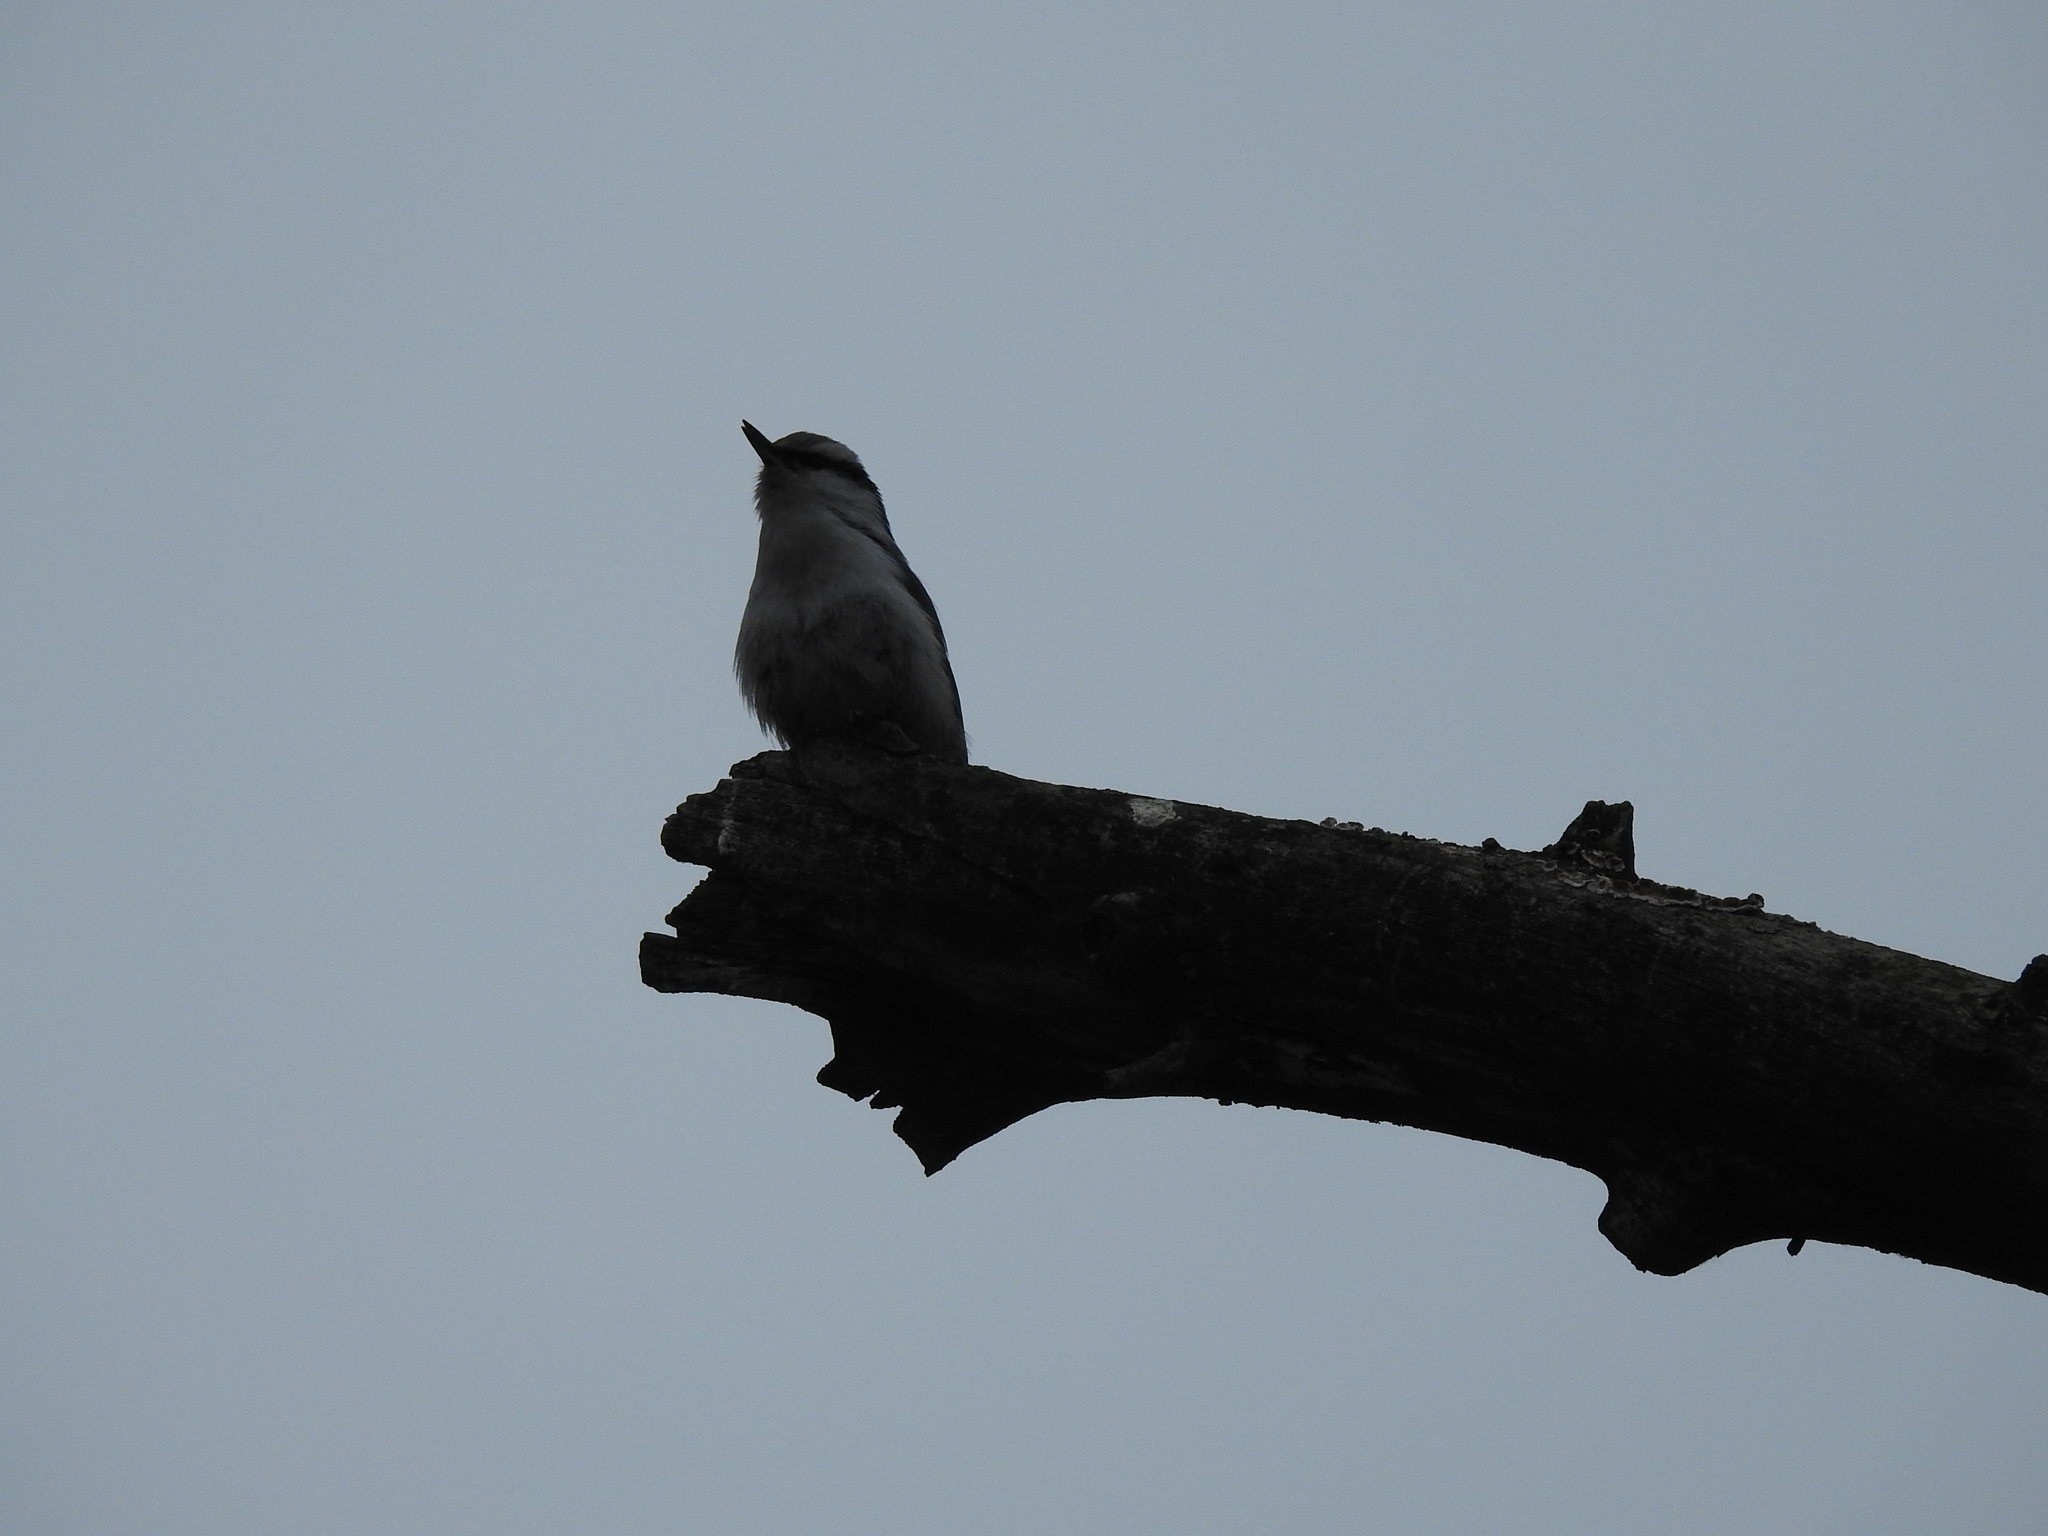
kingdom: Animalia
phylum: Chordata
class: Aves
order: Passeriformes
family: Sittidae
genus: Sitta
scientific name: Sitta europaea
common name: Eurasian nuthatch
